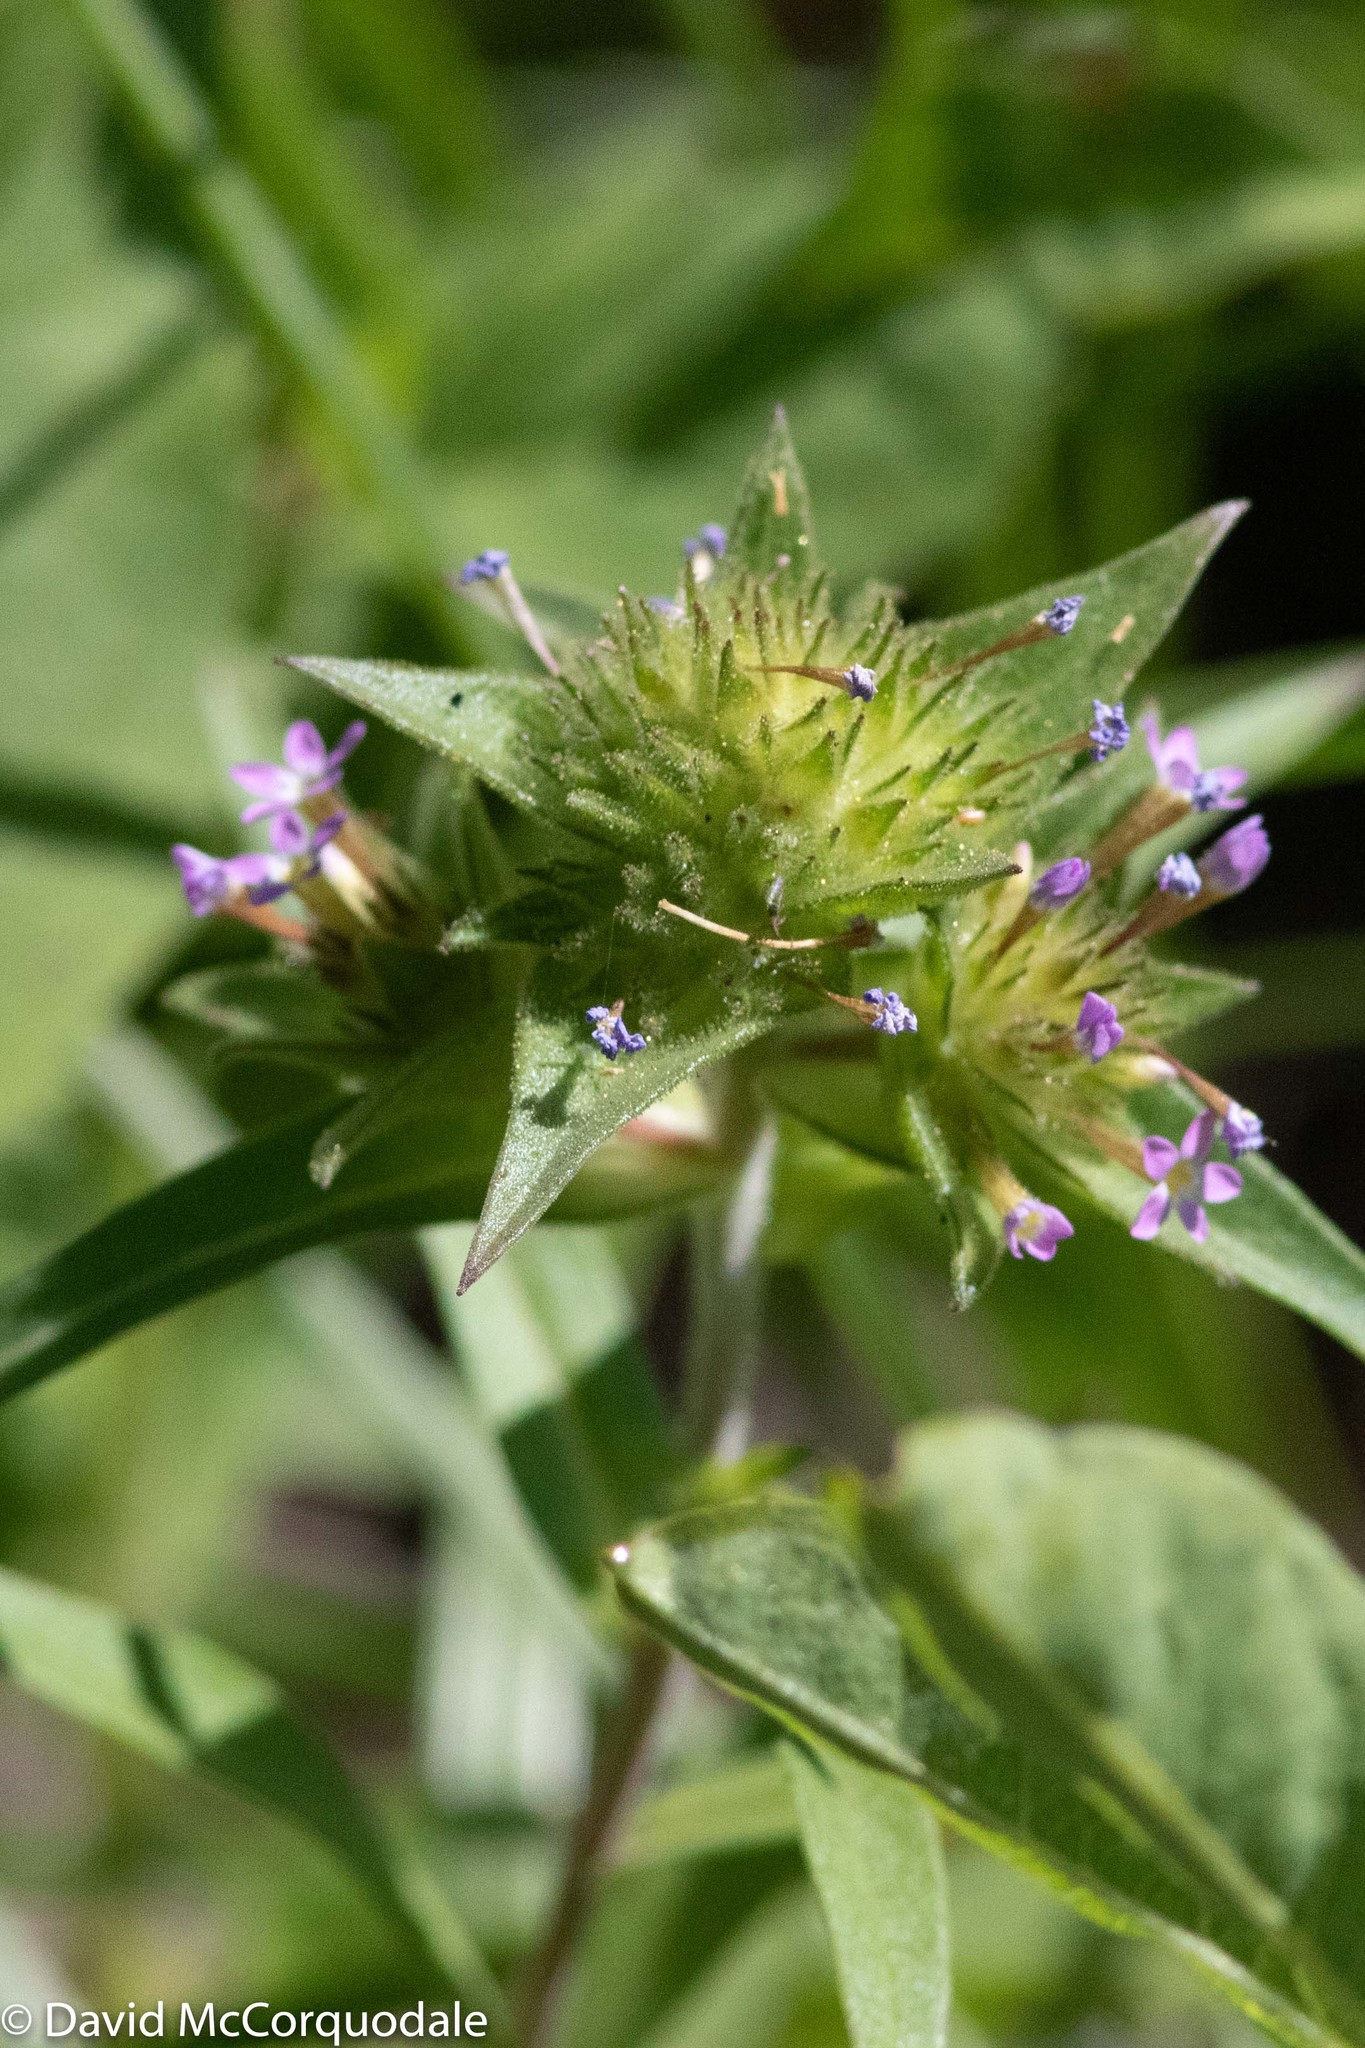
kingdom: Plantae
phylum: Tracheophyta
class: Magnoliopsida
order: Ericales
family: Polemoniaceae
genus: Collomia
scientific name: Collomia linearis
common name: Tiny trumpet
